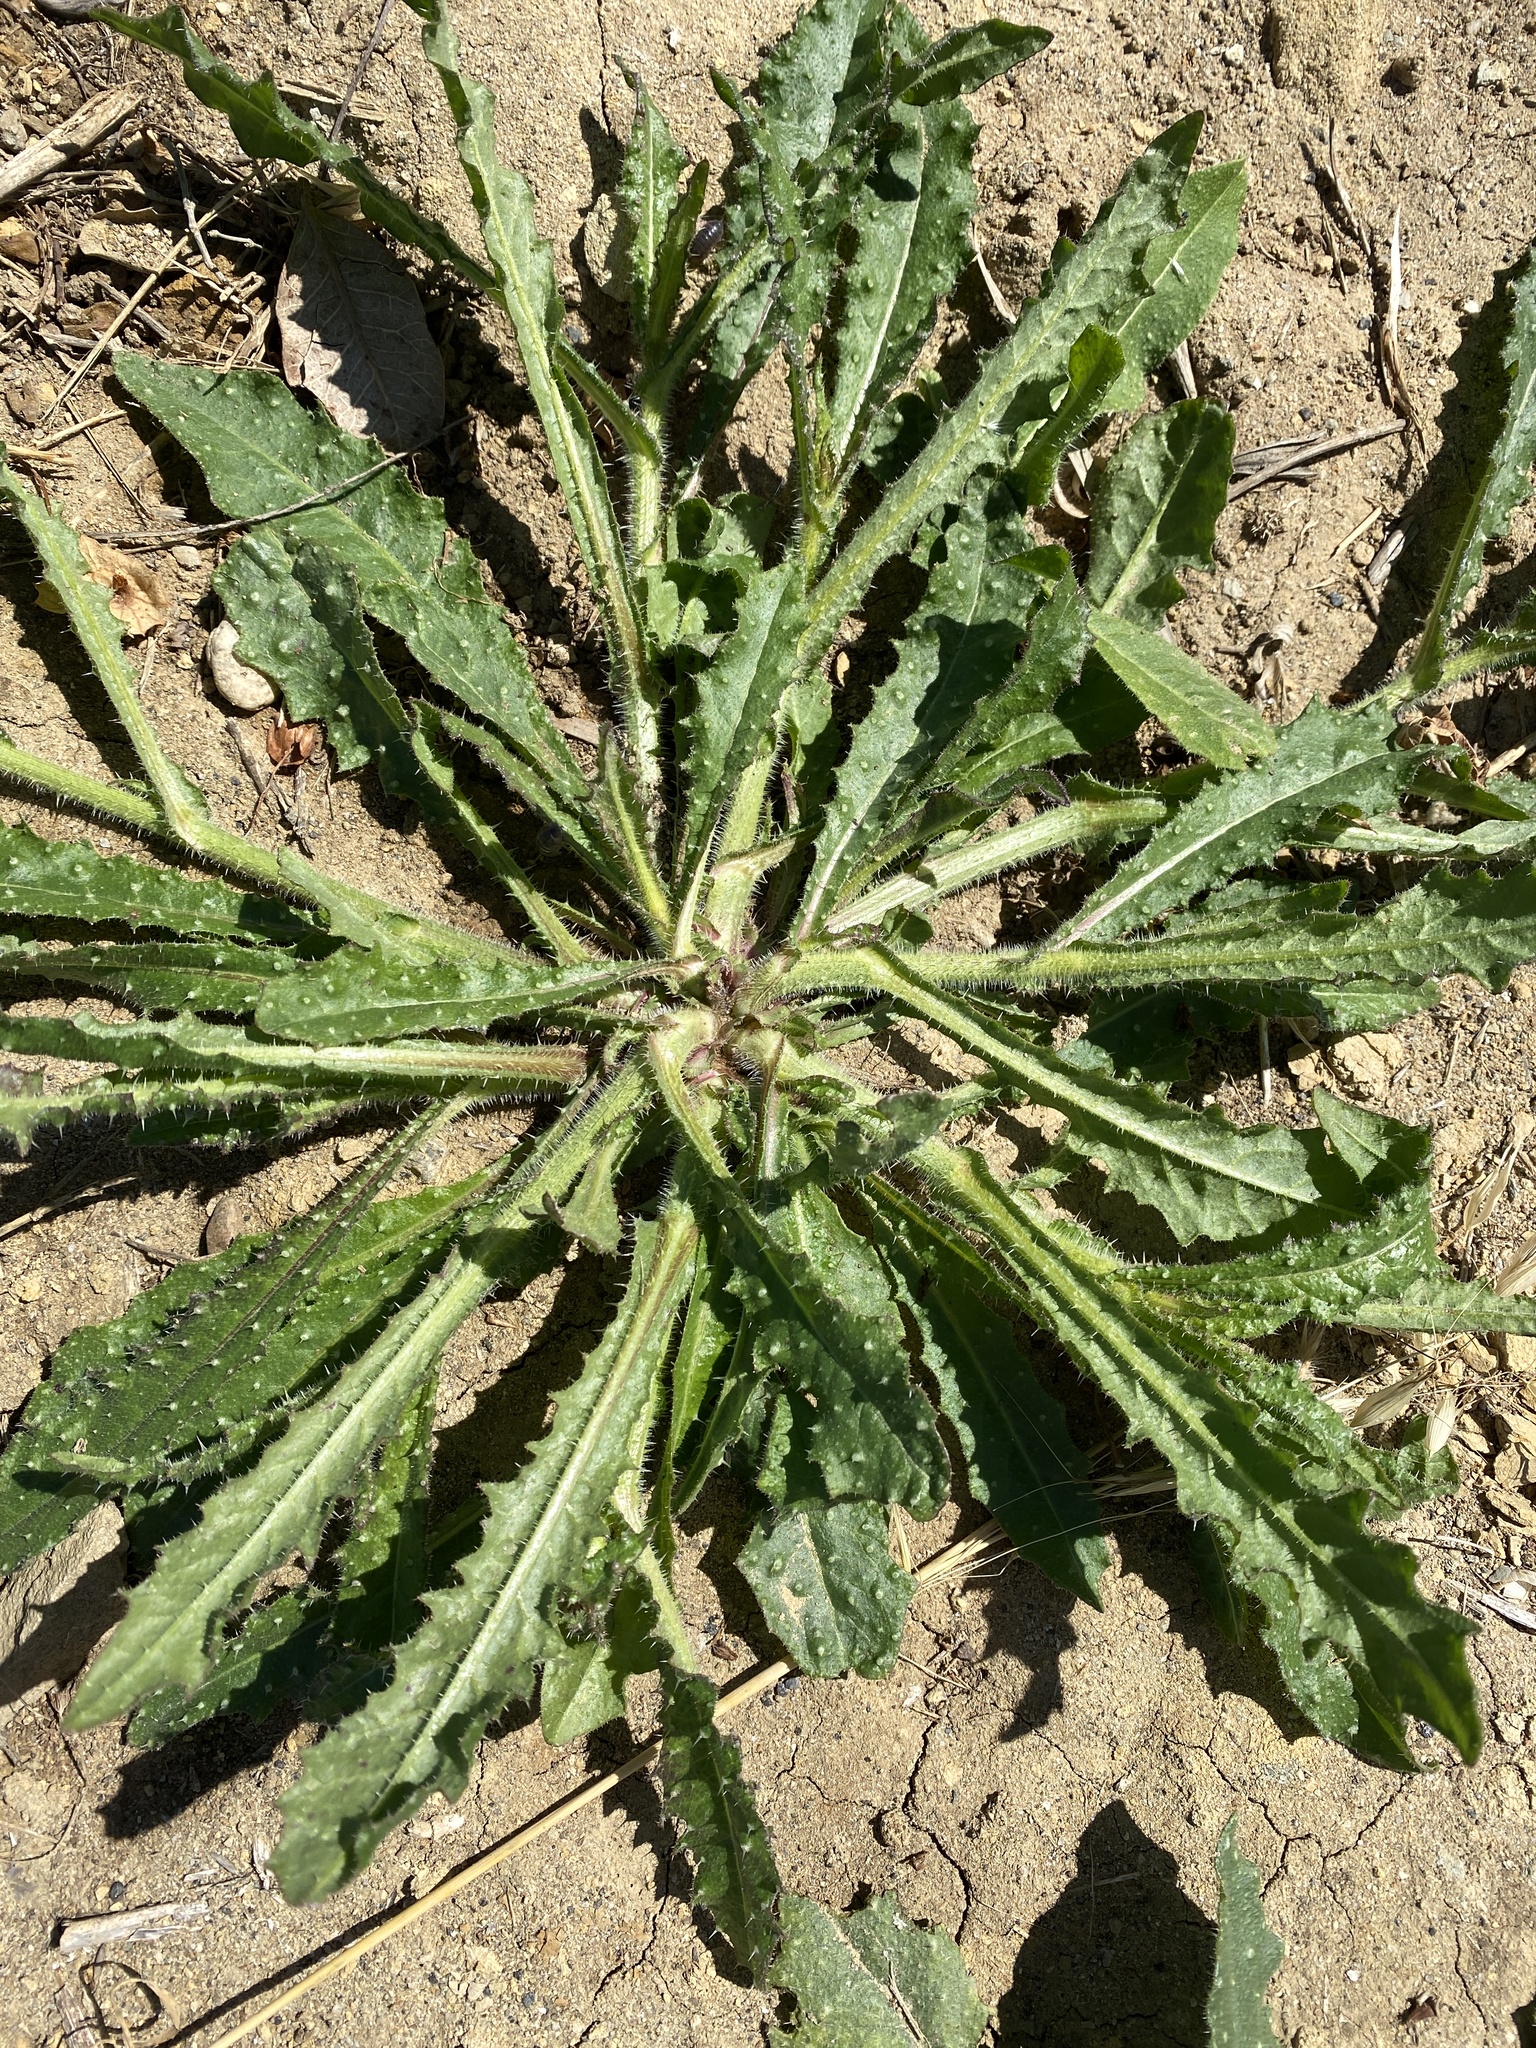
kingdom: Plantae
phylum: Tracheophyta
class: Magnoliopsida
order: Asterales
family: Asteraceae
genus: Helminthotheca
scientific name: Helminthotheca echioides
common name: Ox-tongue
